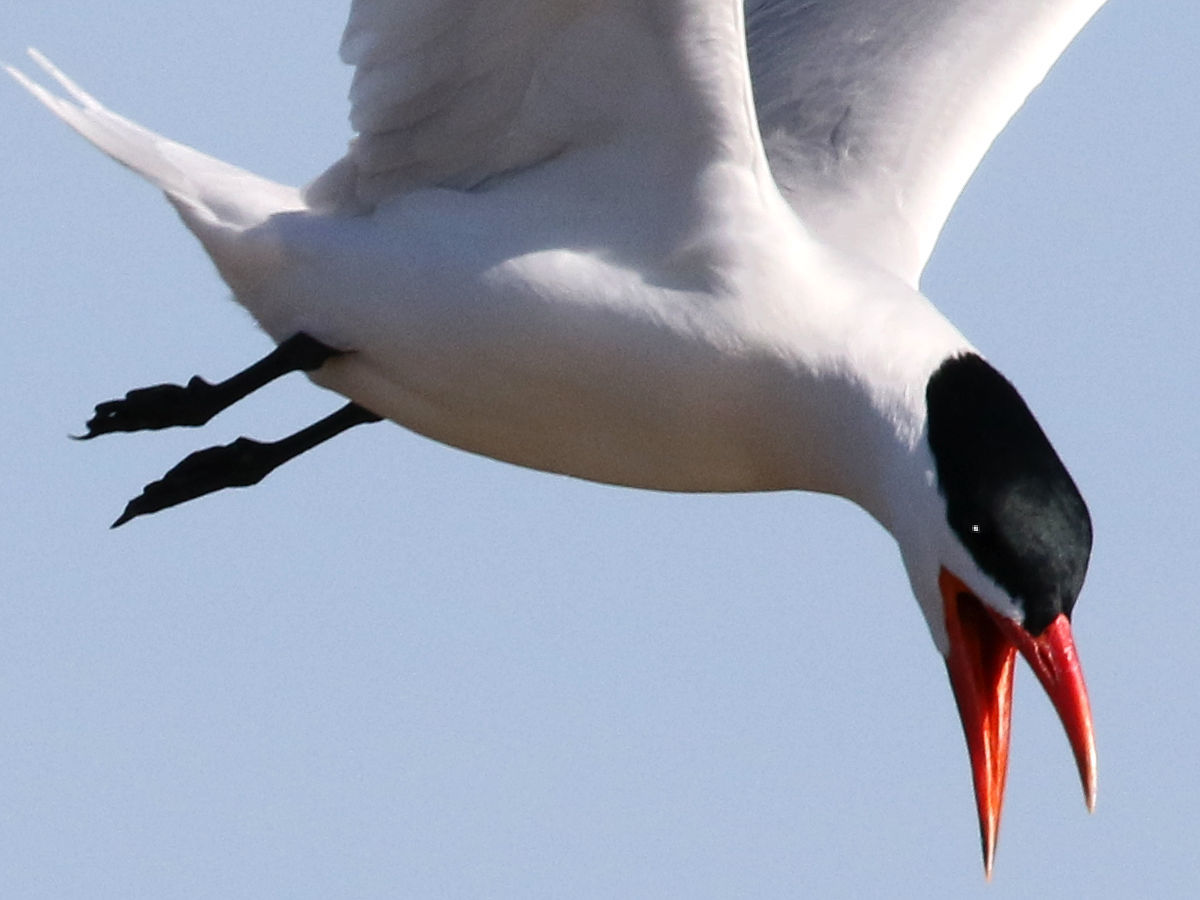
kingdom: Animalia
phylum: Chordata
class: Aves
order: Charadriiformes
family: Laridae
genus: Hydroprogne
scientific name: Hydroprogne caspia
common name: Caspian tern
